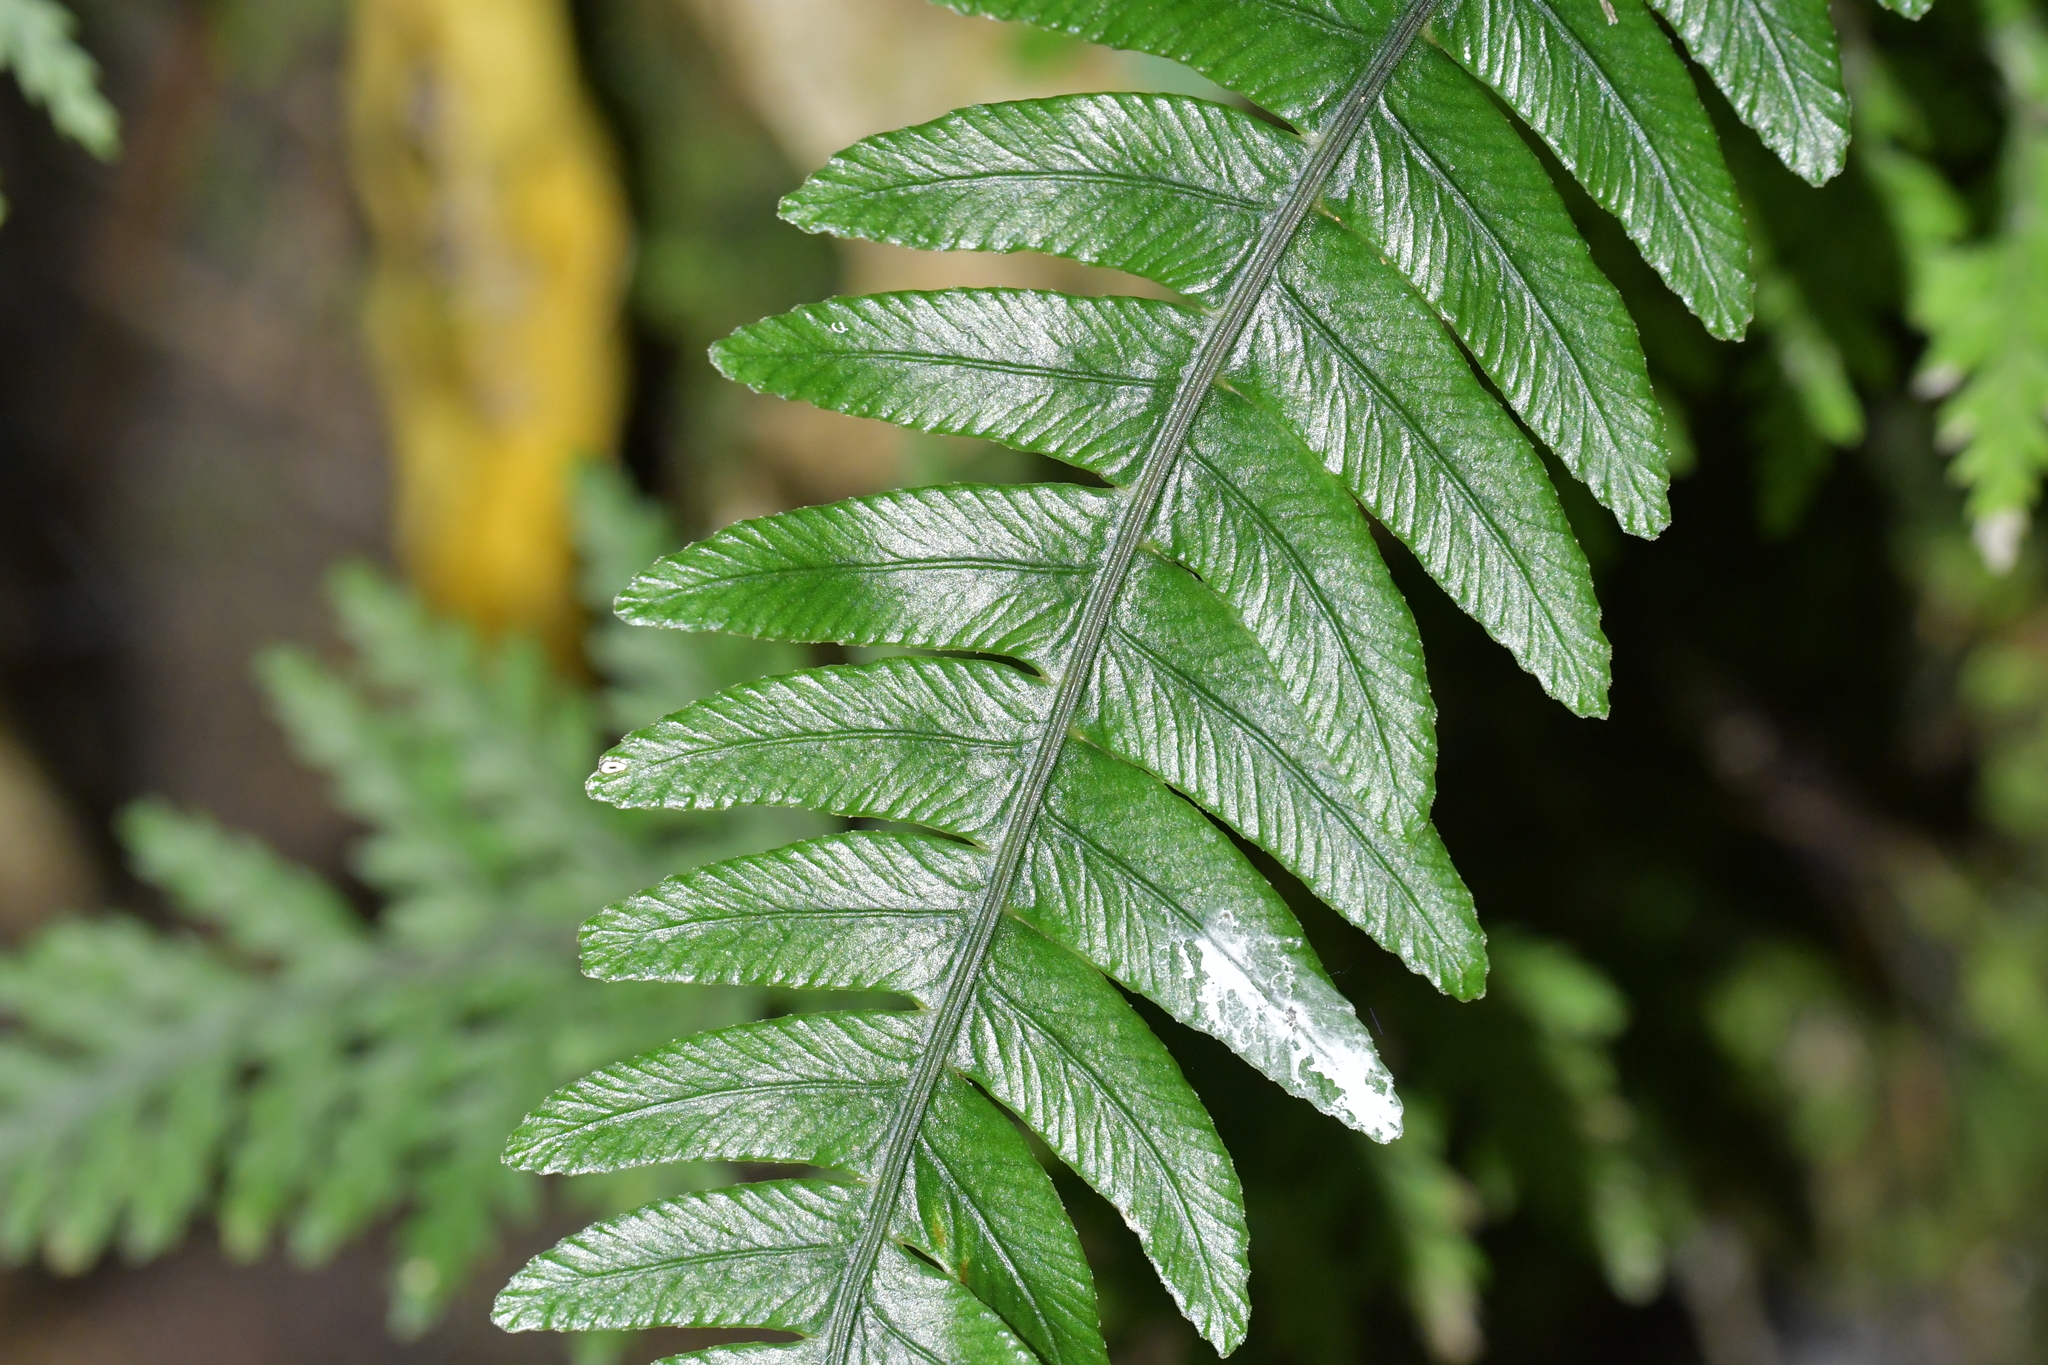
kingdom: Plantae
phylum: Tracheophyta
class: Polypodiopsida
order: Polypodiales
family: Blechnaceae
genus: Austroblechnum
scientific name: Austroblechnum lanceolatum
